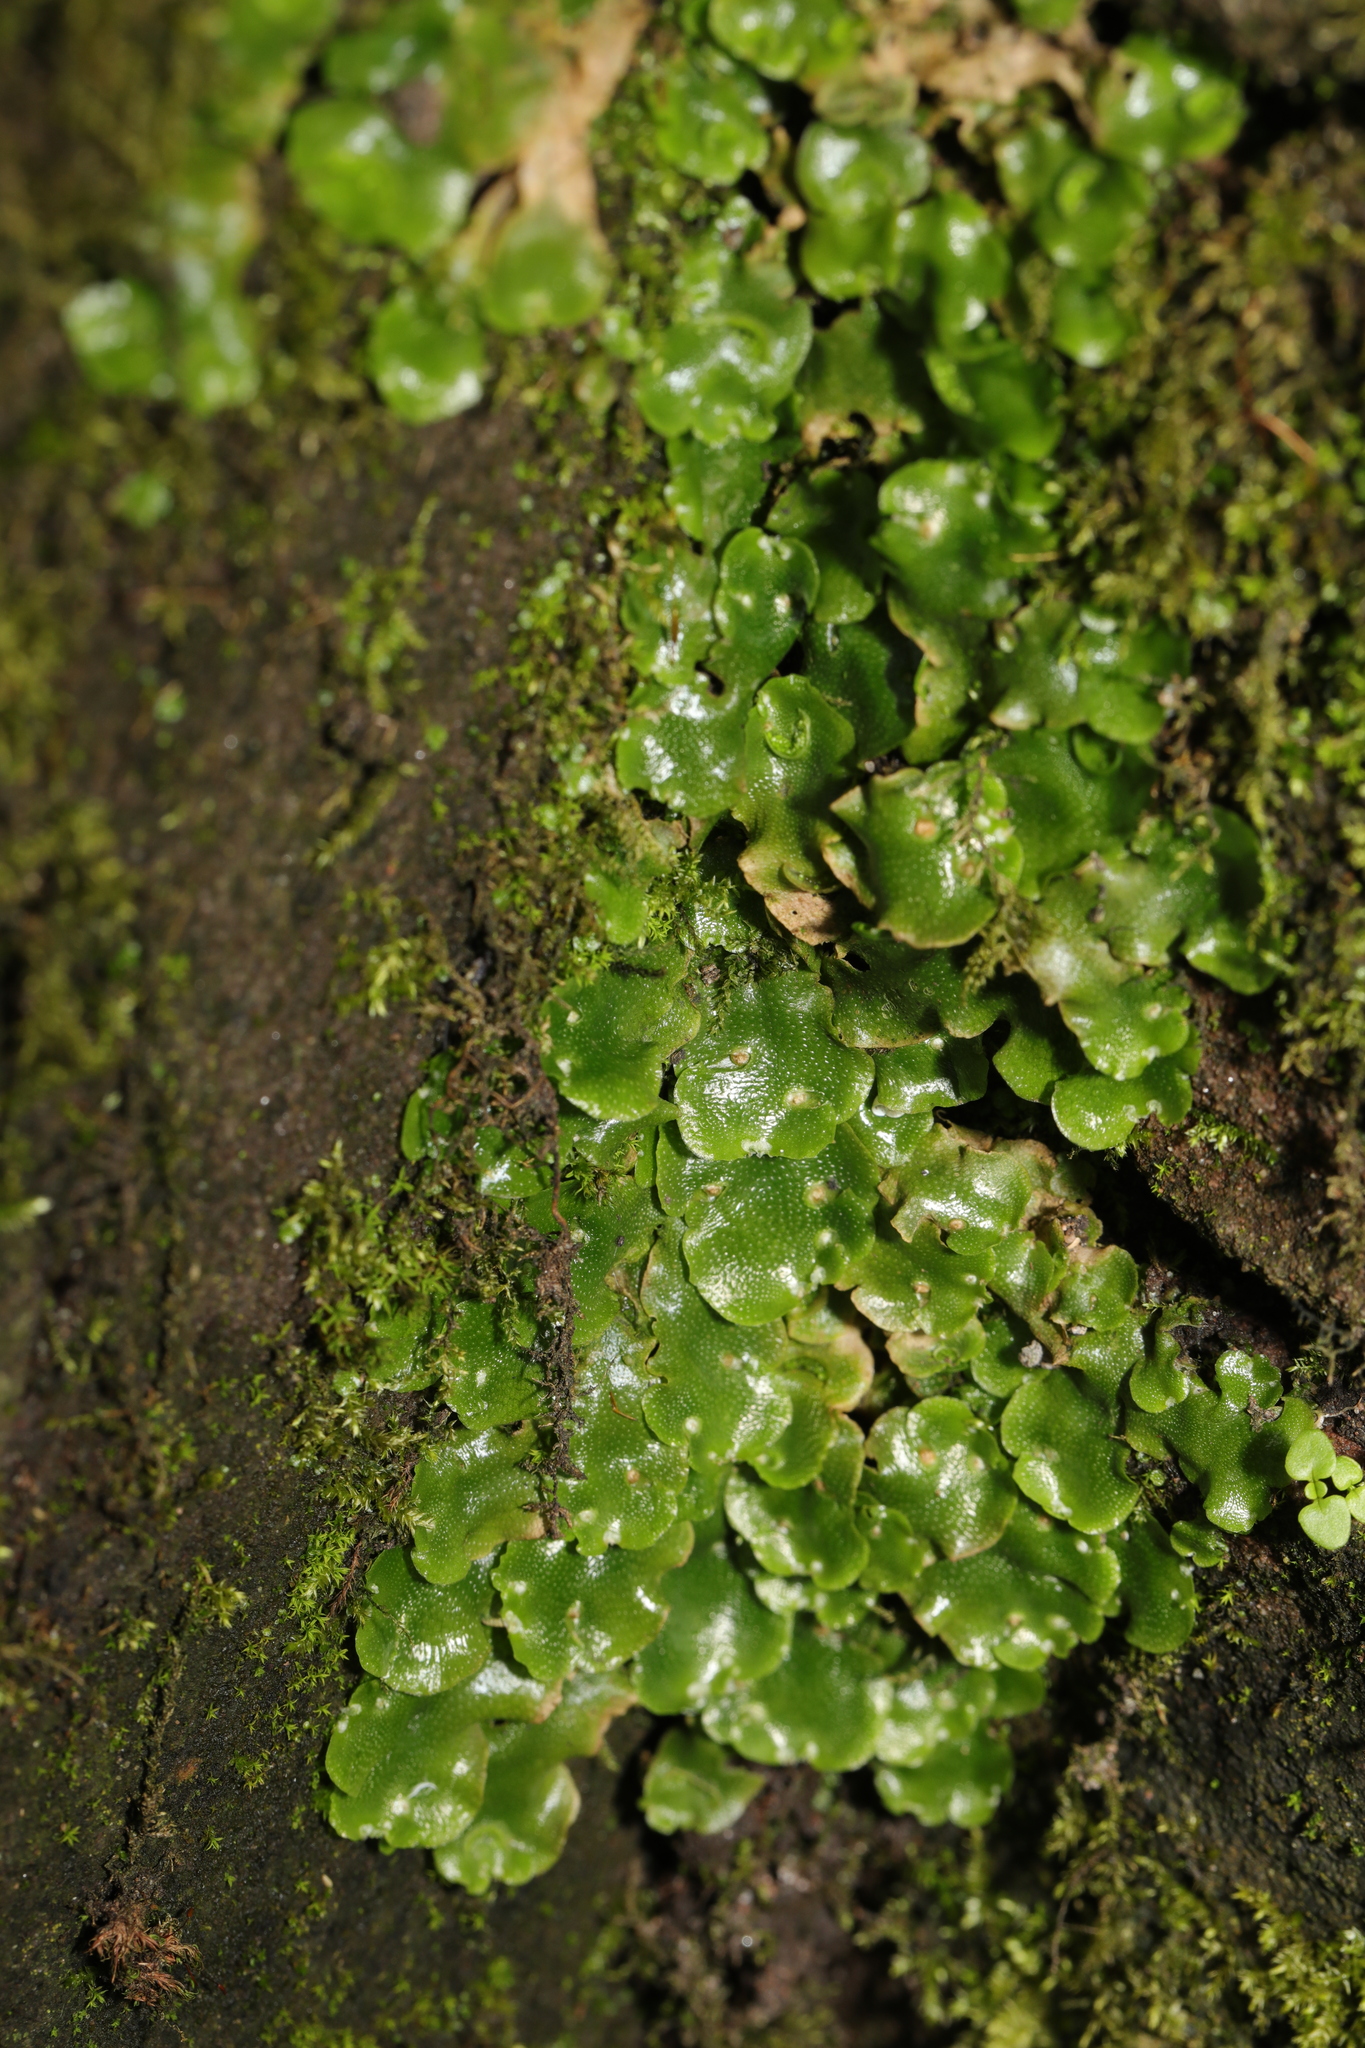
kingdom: Plantae
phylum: Marchantiophyta
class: Marchantiopsida
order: Lunulariales
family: Lunulariaceae
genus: Lunularia
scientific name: Lunularia cruciata
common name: Crescent-cup liverwort
